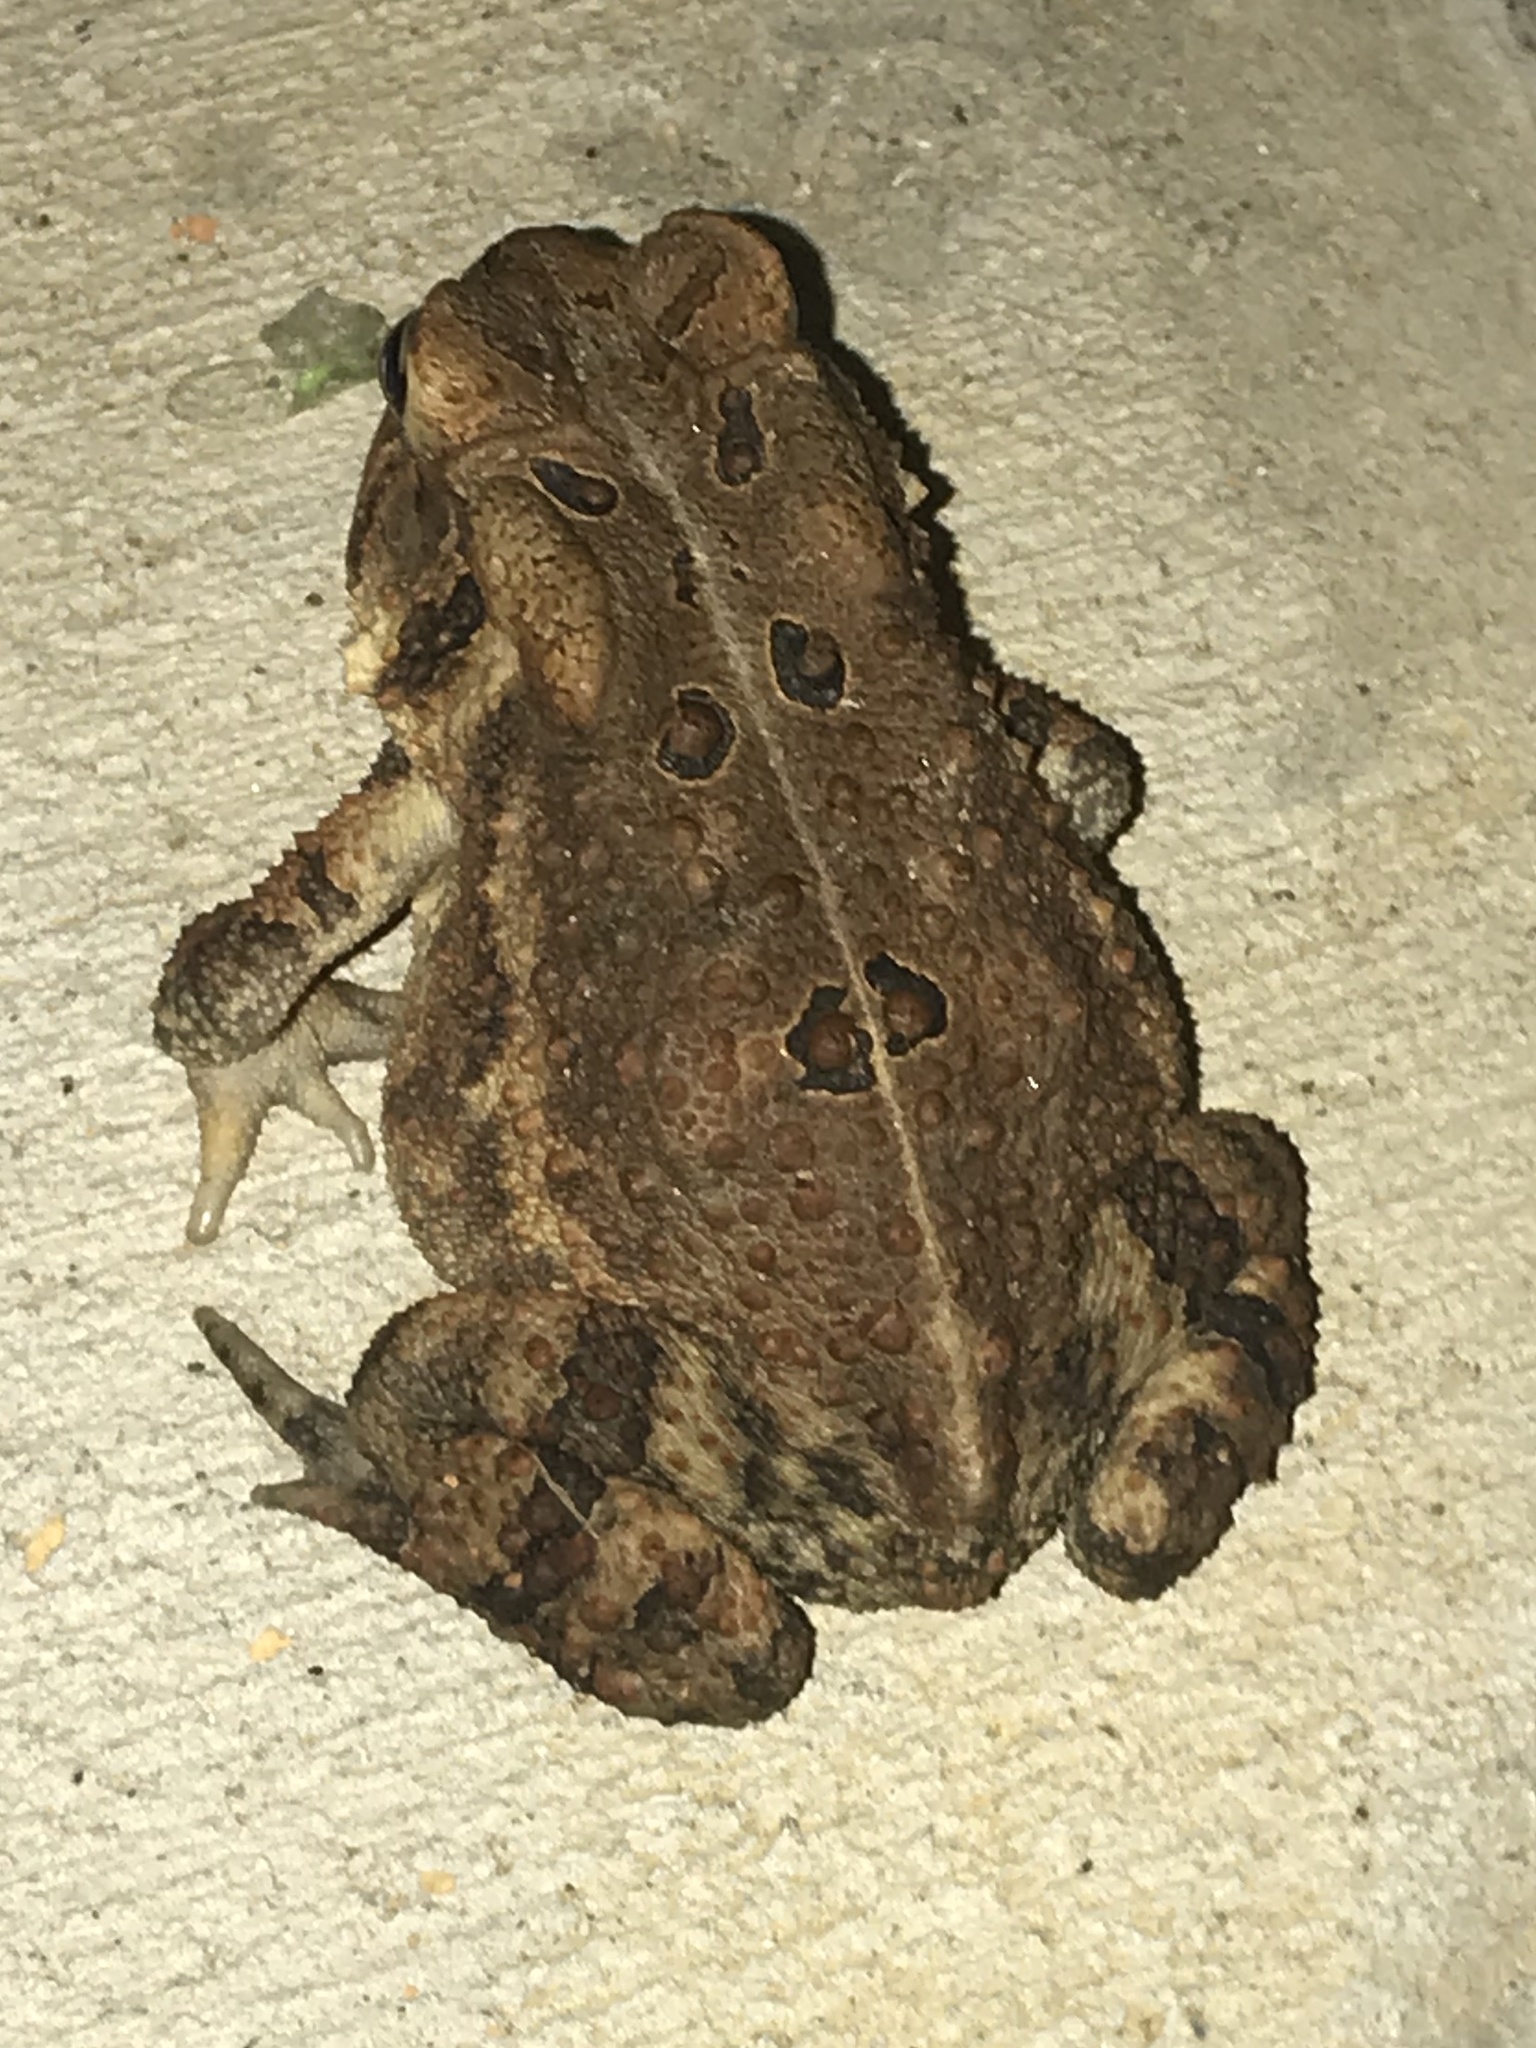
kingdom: Animalia
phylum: Chordata
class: Amphibia
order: Anura
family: Bufonidae
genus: Anaxyrus
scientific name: Anaxyrus americanus
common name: American toad
